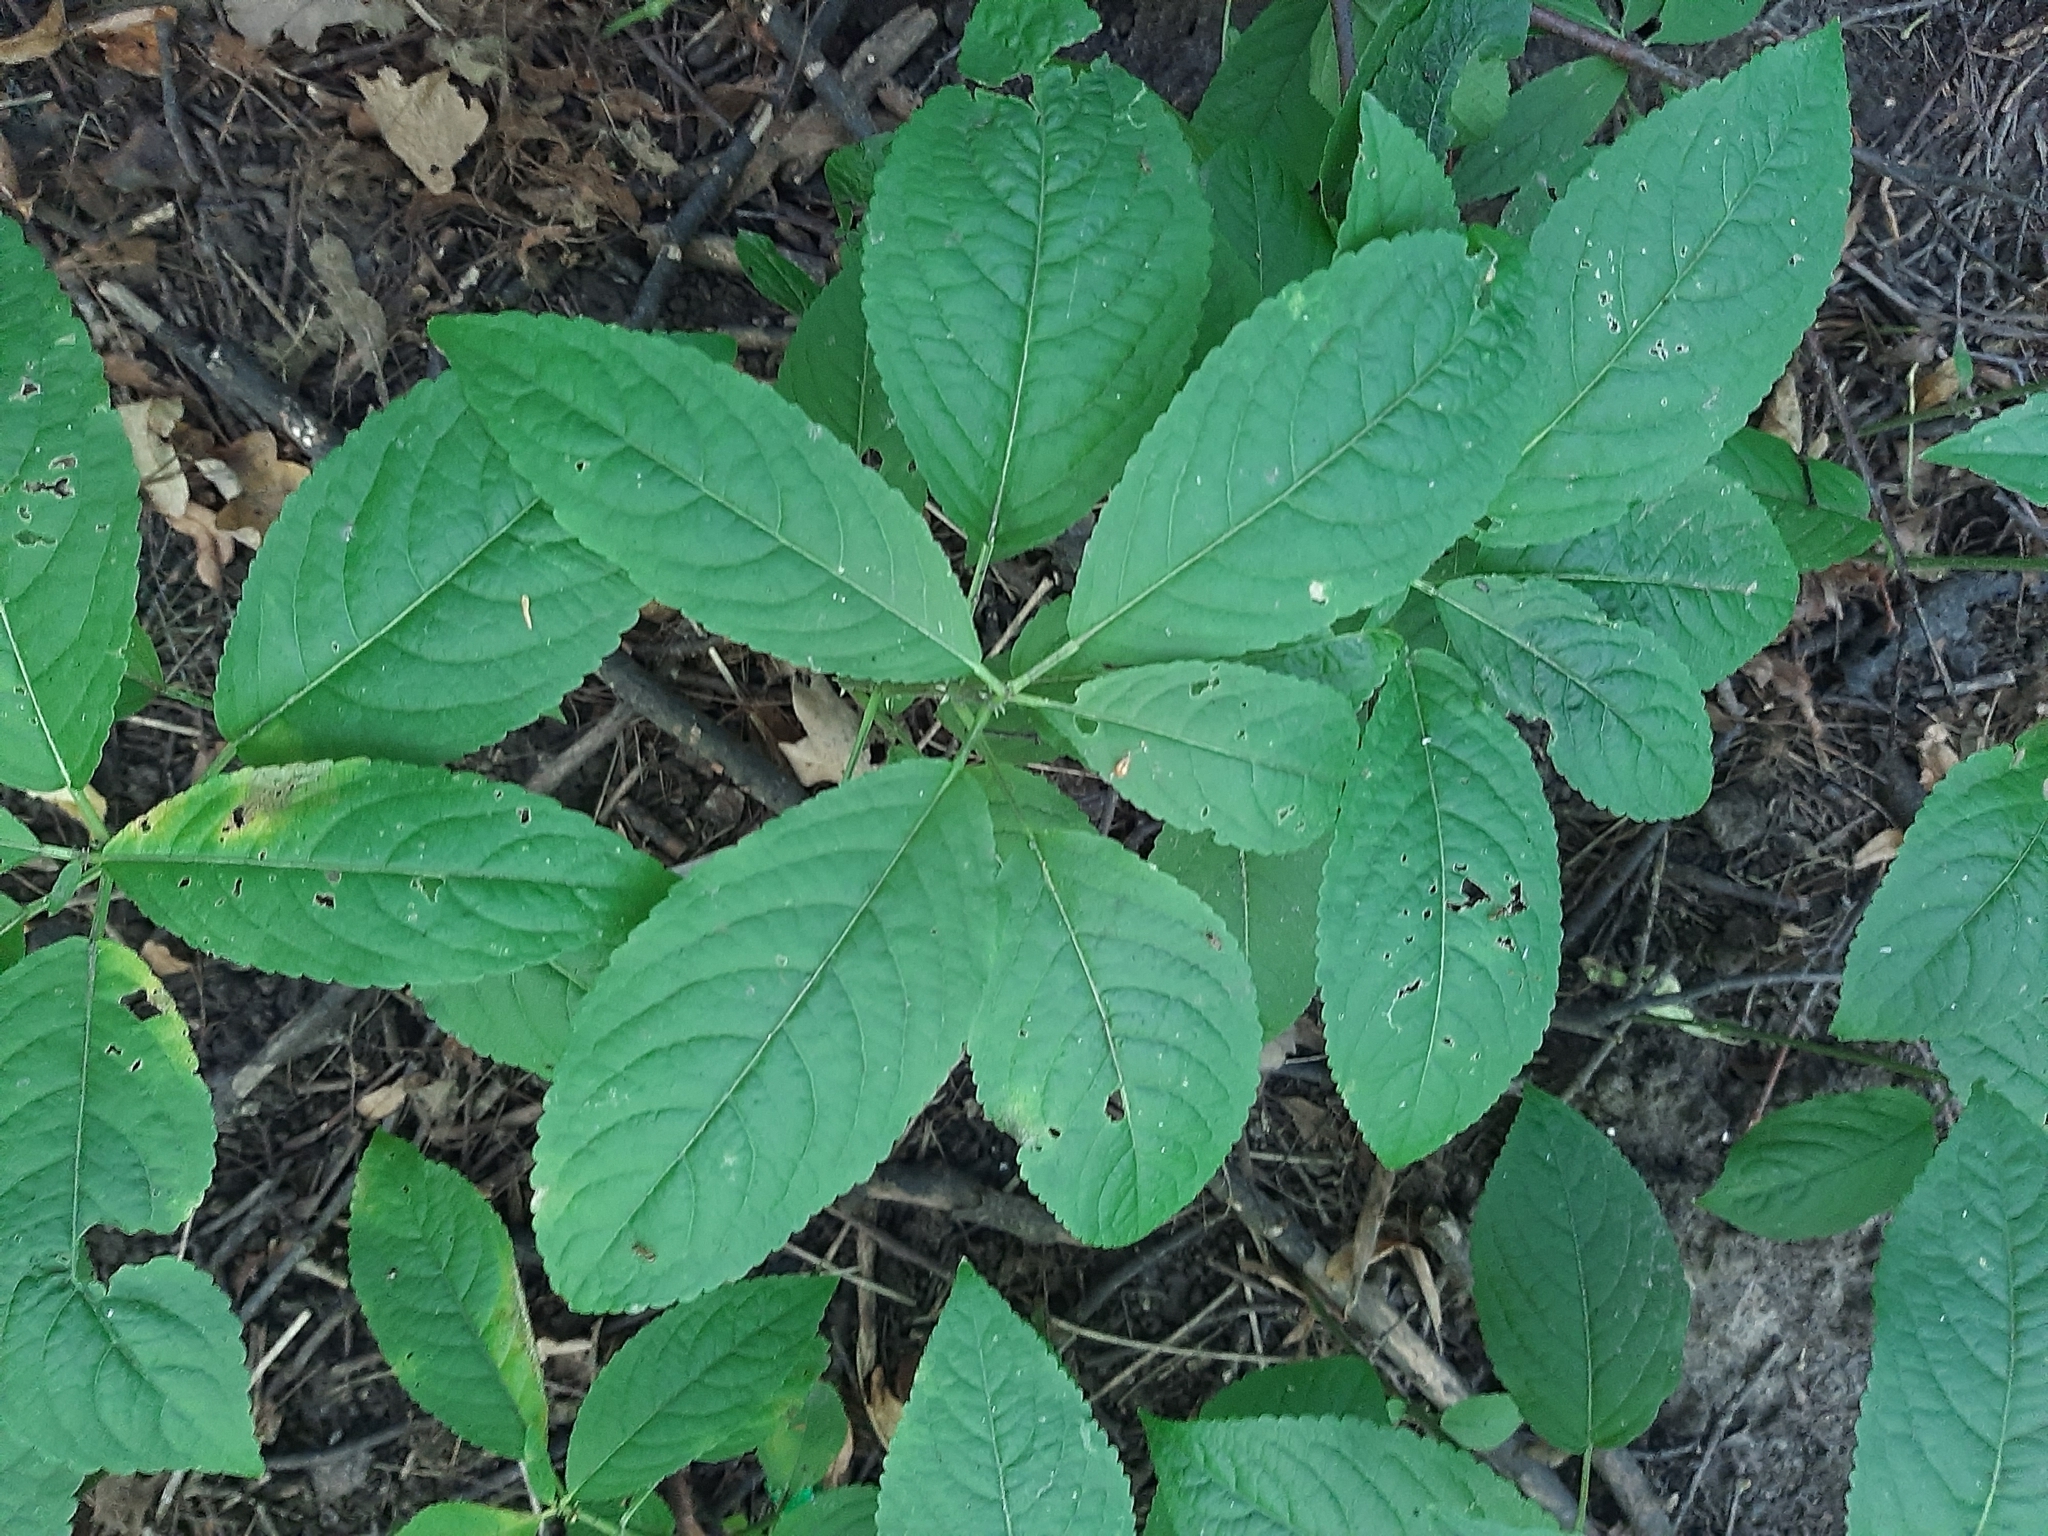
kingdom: Plantae
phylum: Tracheophyta
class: Magnoliopsida
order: Malpighiales
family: Euphorbiaceae
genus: Mercurialis
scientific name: Mercurialis perennis
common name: Dog mercury
